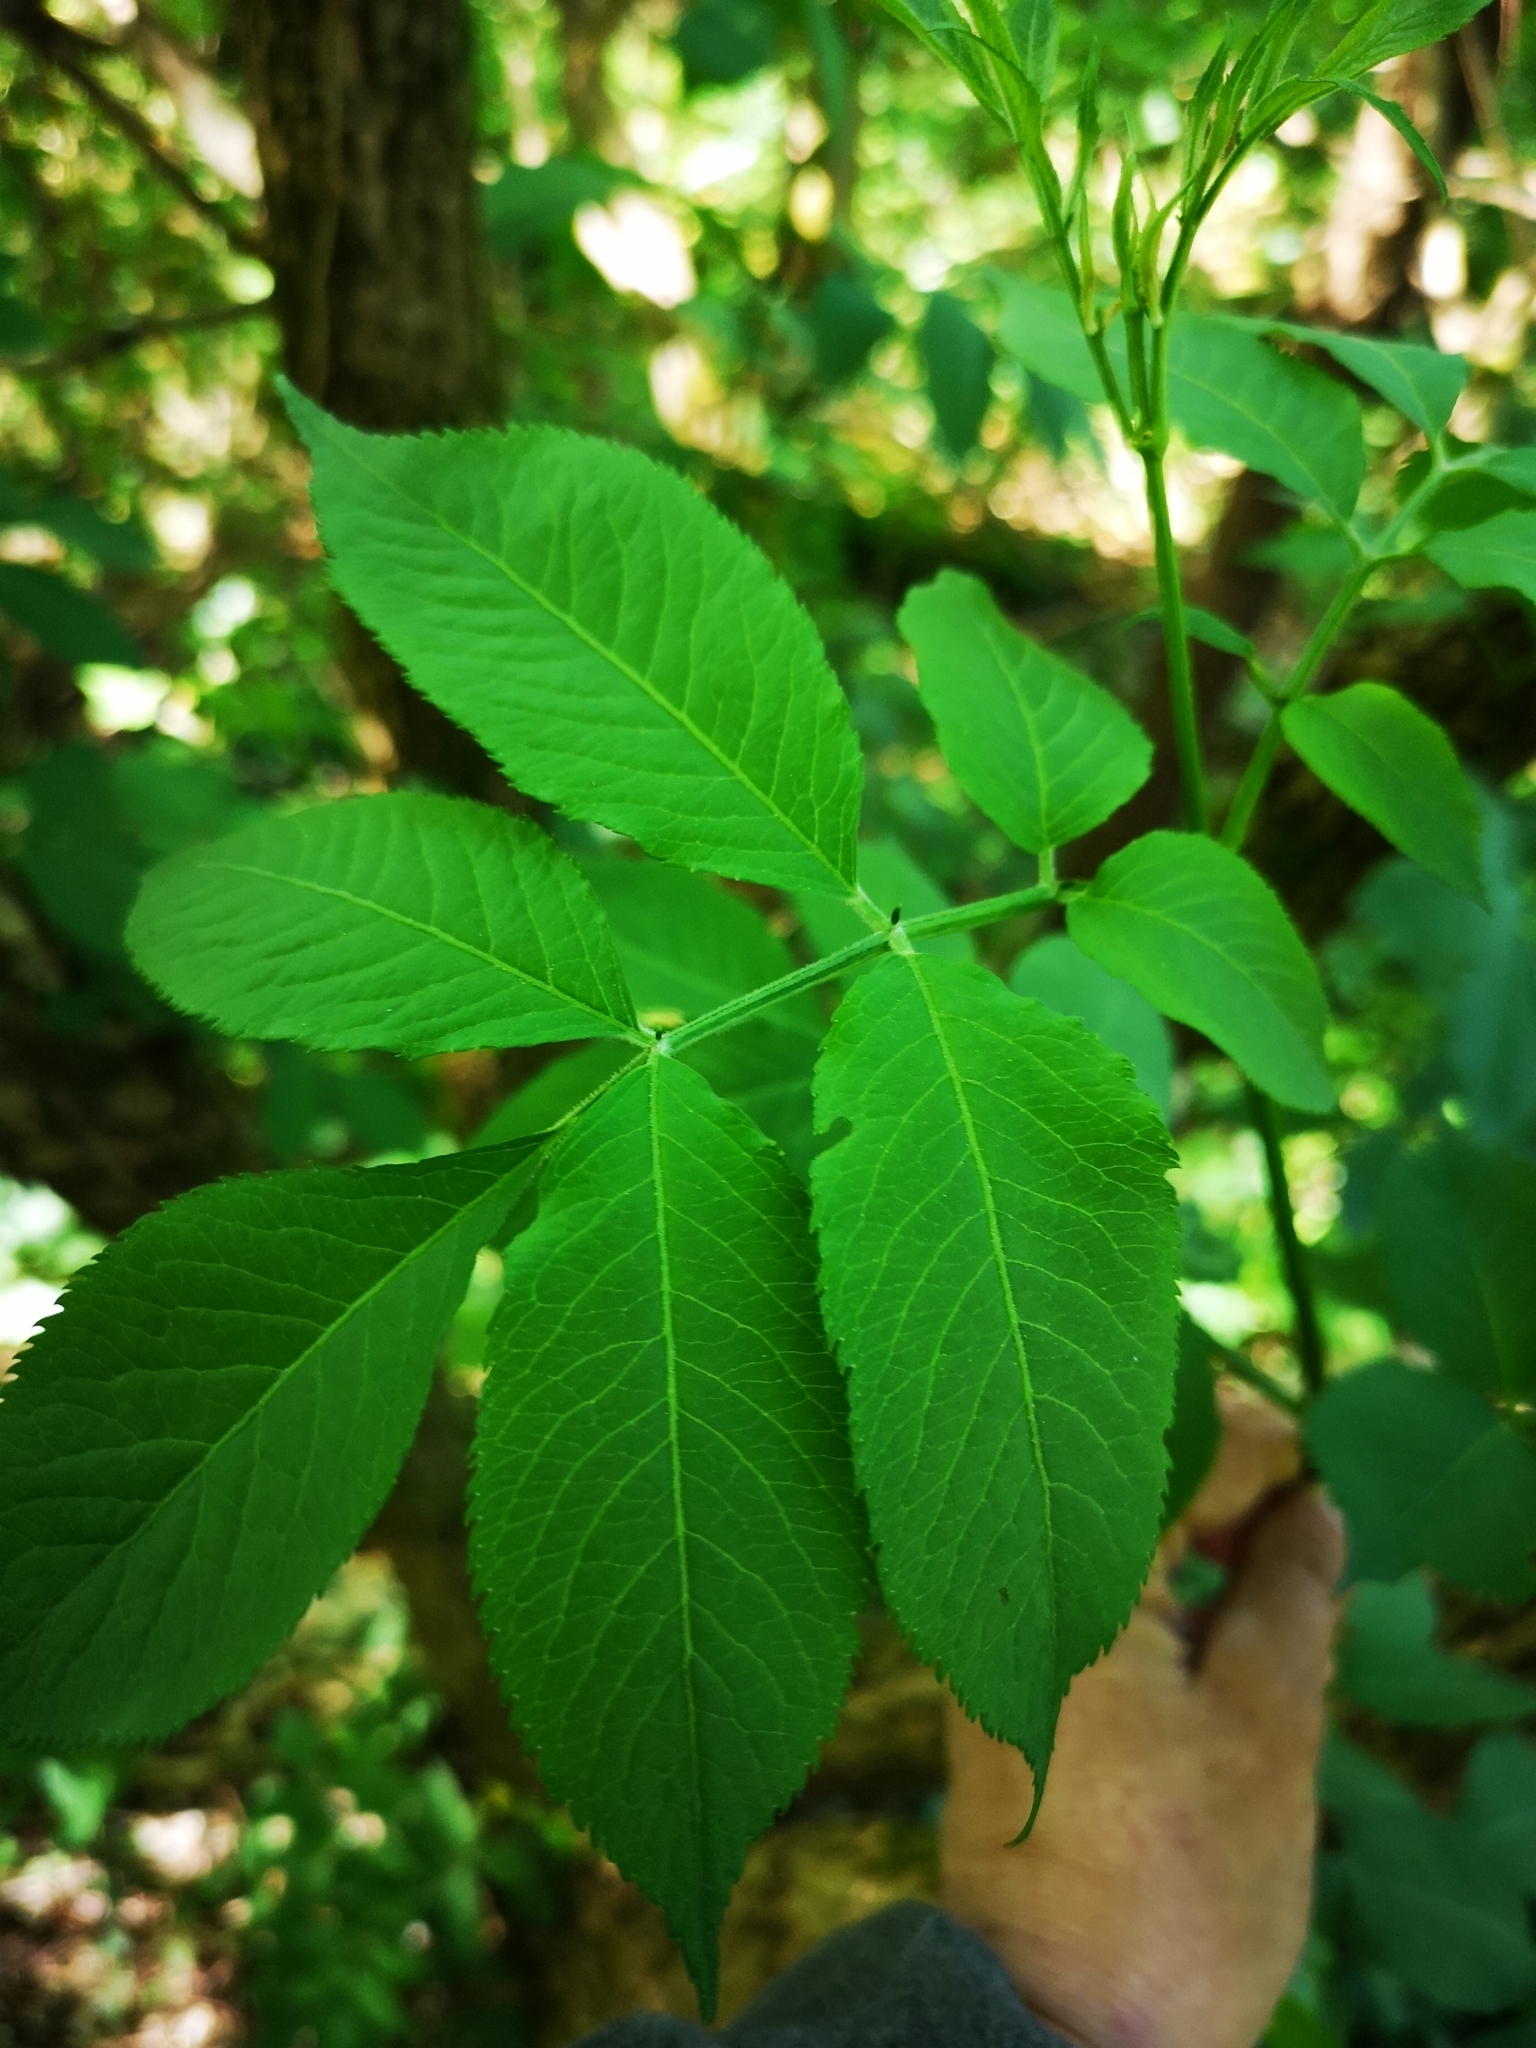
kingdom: Plantae
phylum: Tracheophyta
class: Magnoliopsida
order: Dipsacales
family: Viburnaceae
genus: Sambucus
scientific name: Sambucus nigra
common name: Elder
